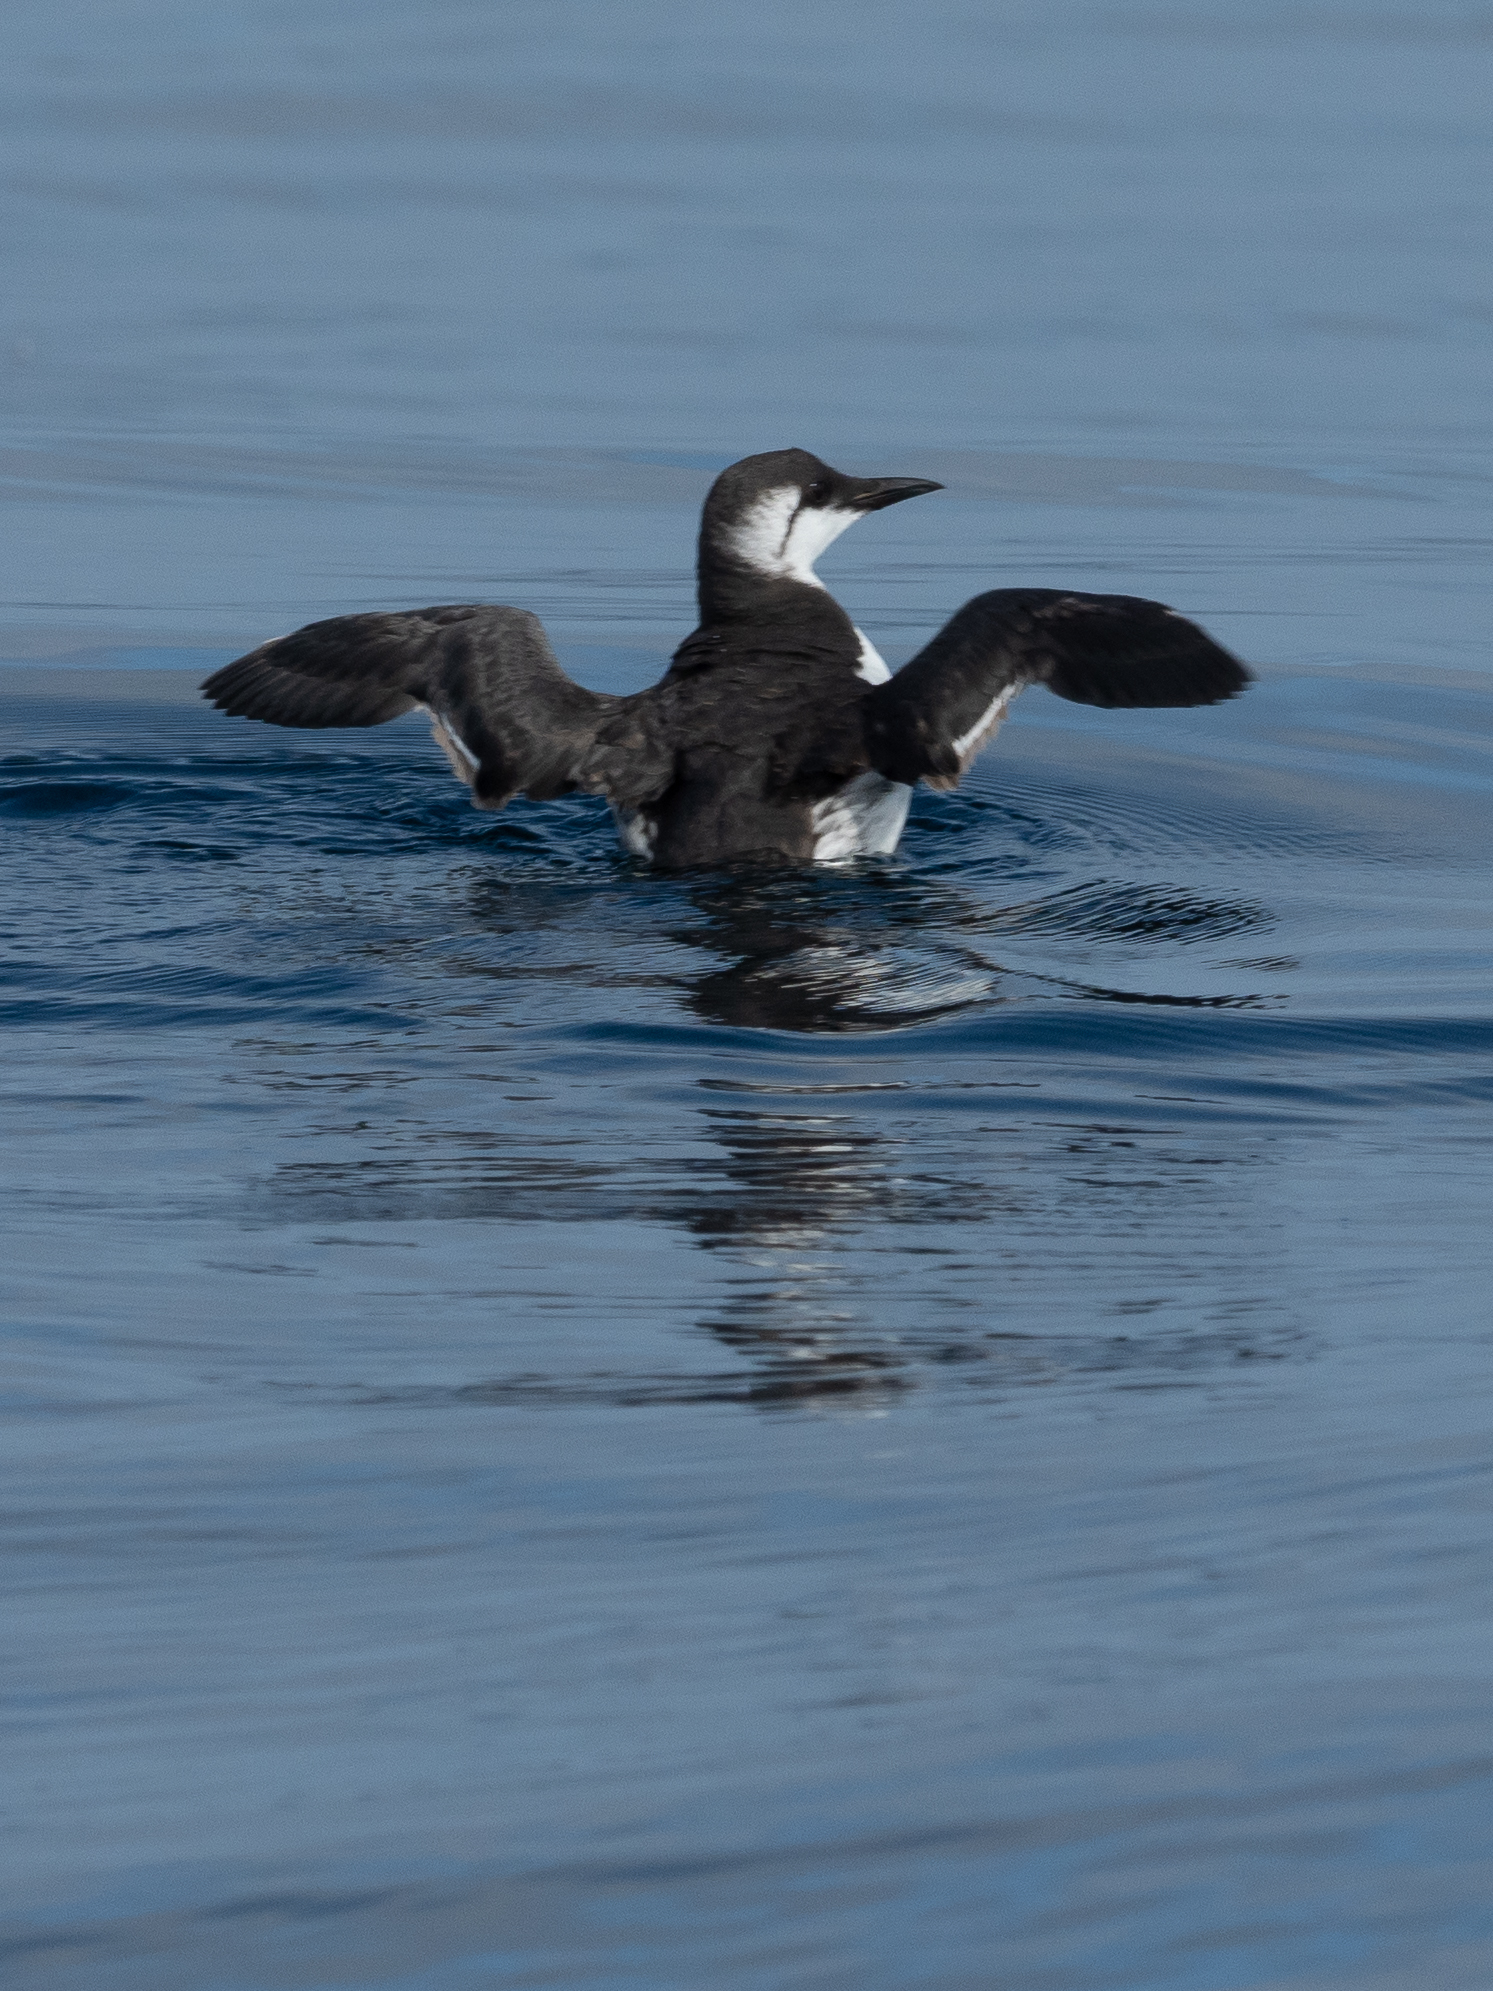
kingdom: Animalia
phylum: Chordata
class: Aves
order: Charadriiformes
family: Alcidae
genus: Uria
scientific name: Uria aalge
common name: Common murre
